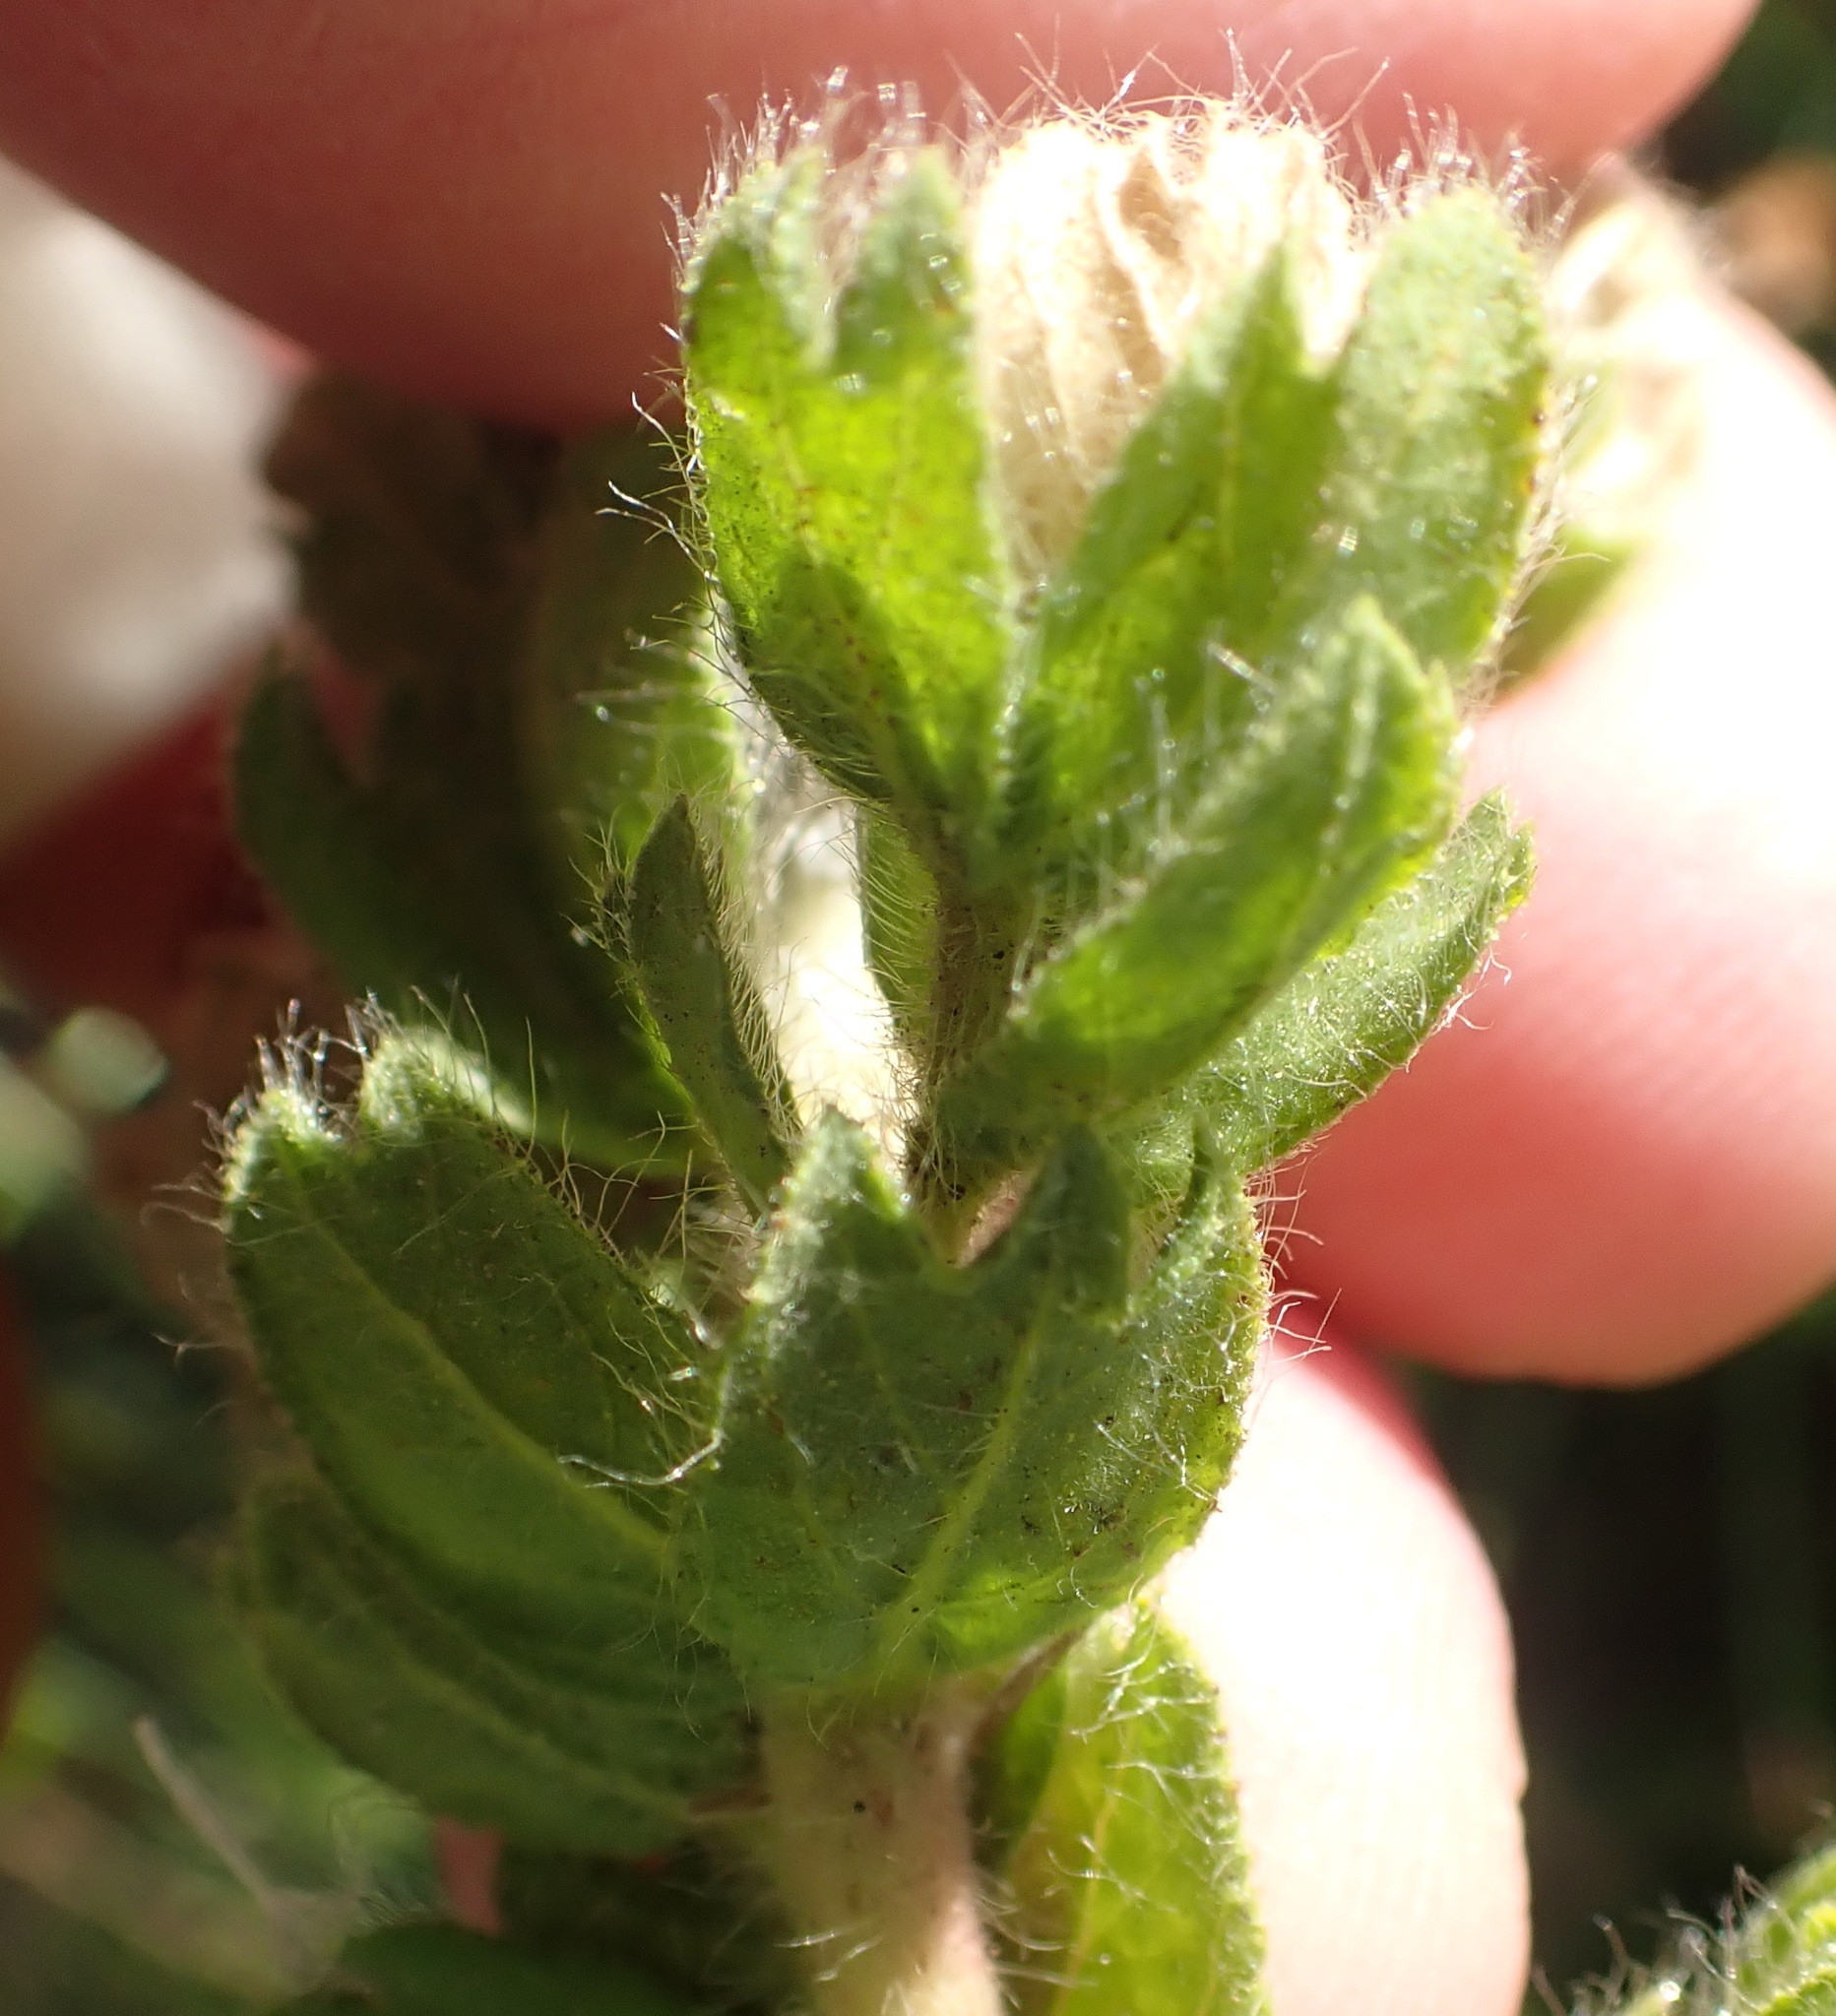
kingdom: Plantae
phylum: Tracheophyta
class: Magnoliopsida
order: Rosales
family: Rosaceae
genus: Cliffortia
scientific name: Cliffortia polygonifolia
